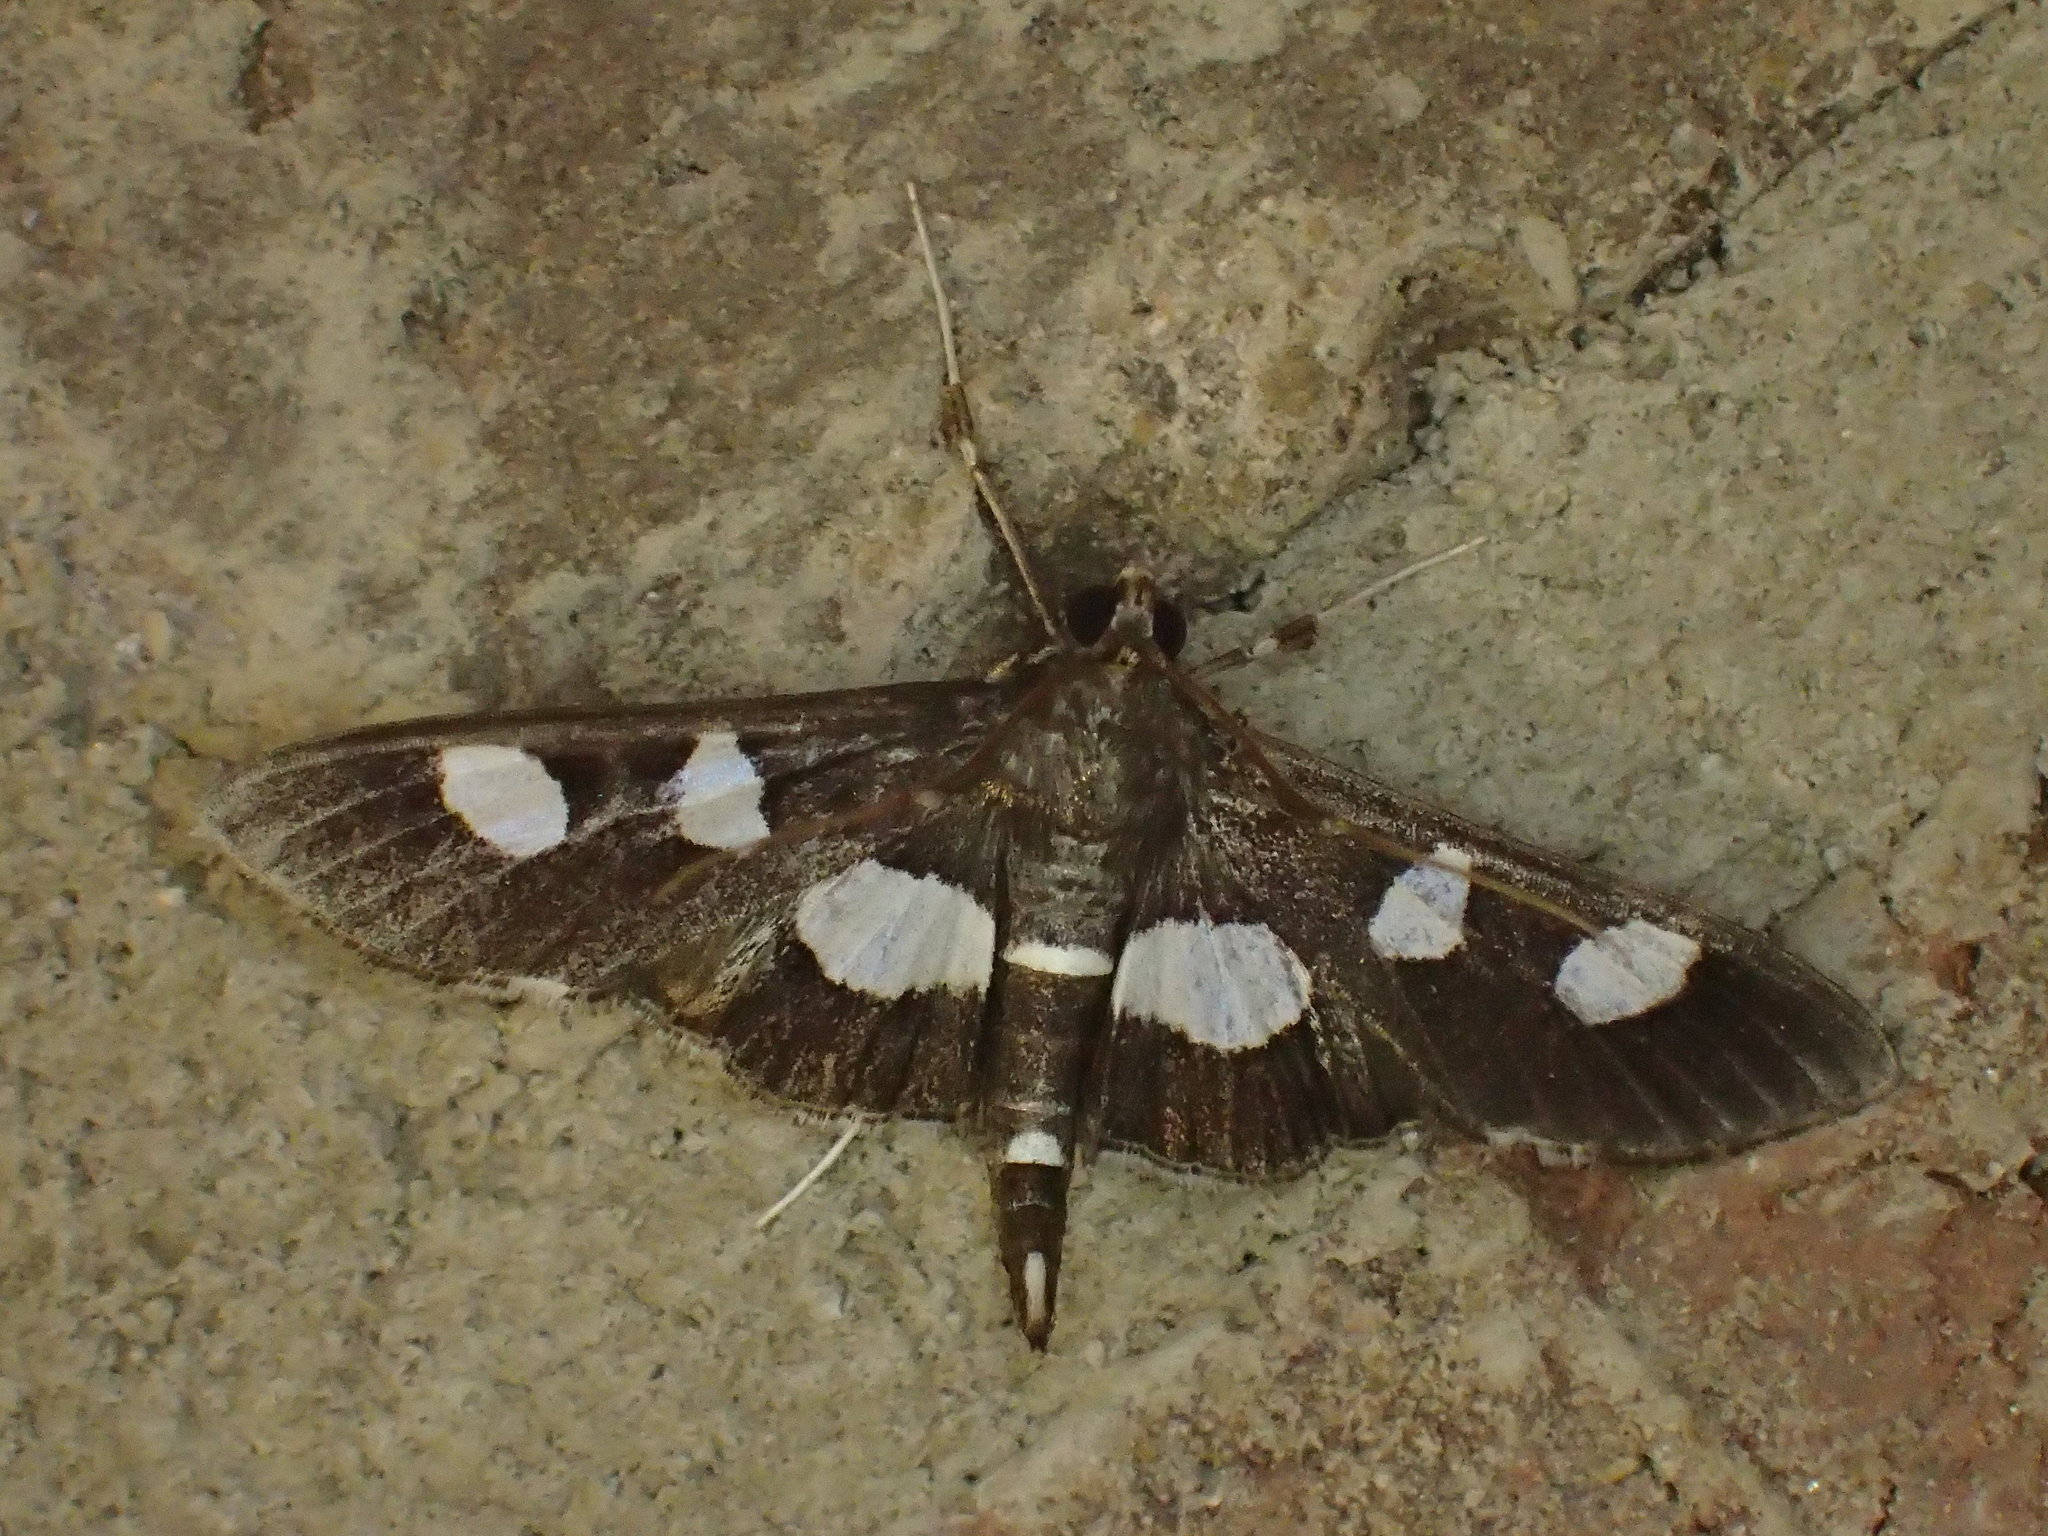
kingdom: Animalia
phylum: Arthropoda
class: Insecta
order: Lepidoptera
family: Crambidae
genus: Desmia
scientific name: Desmia
